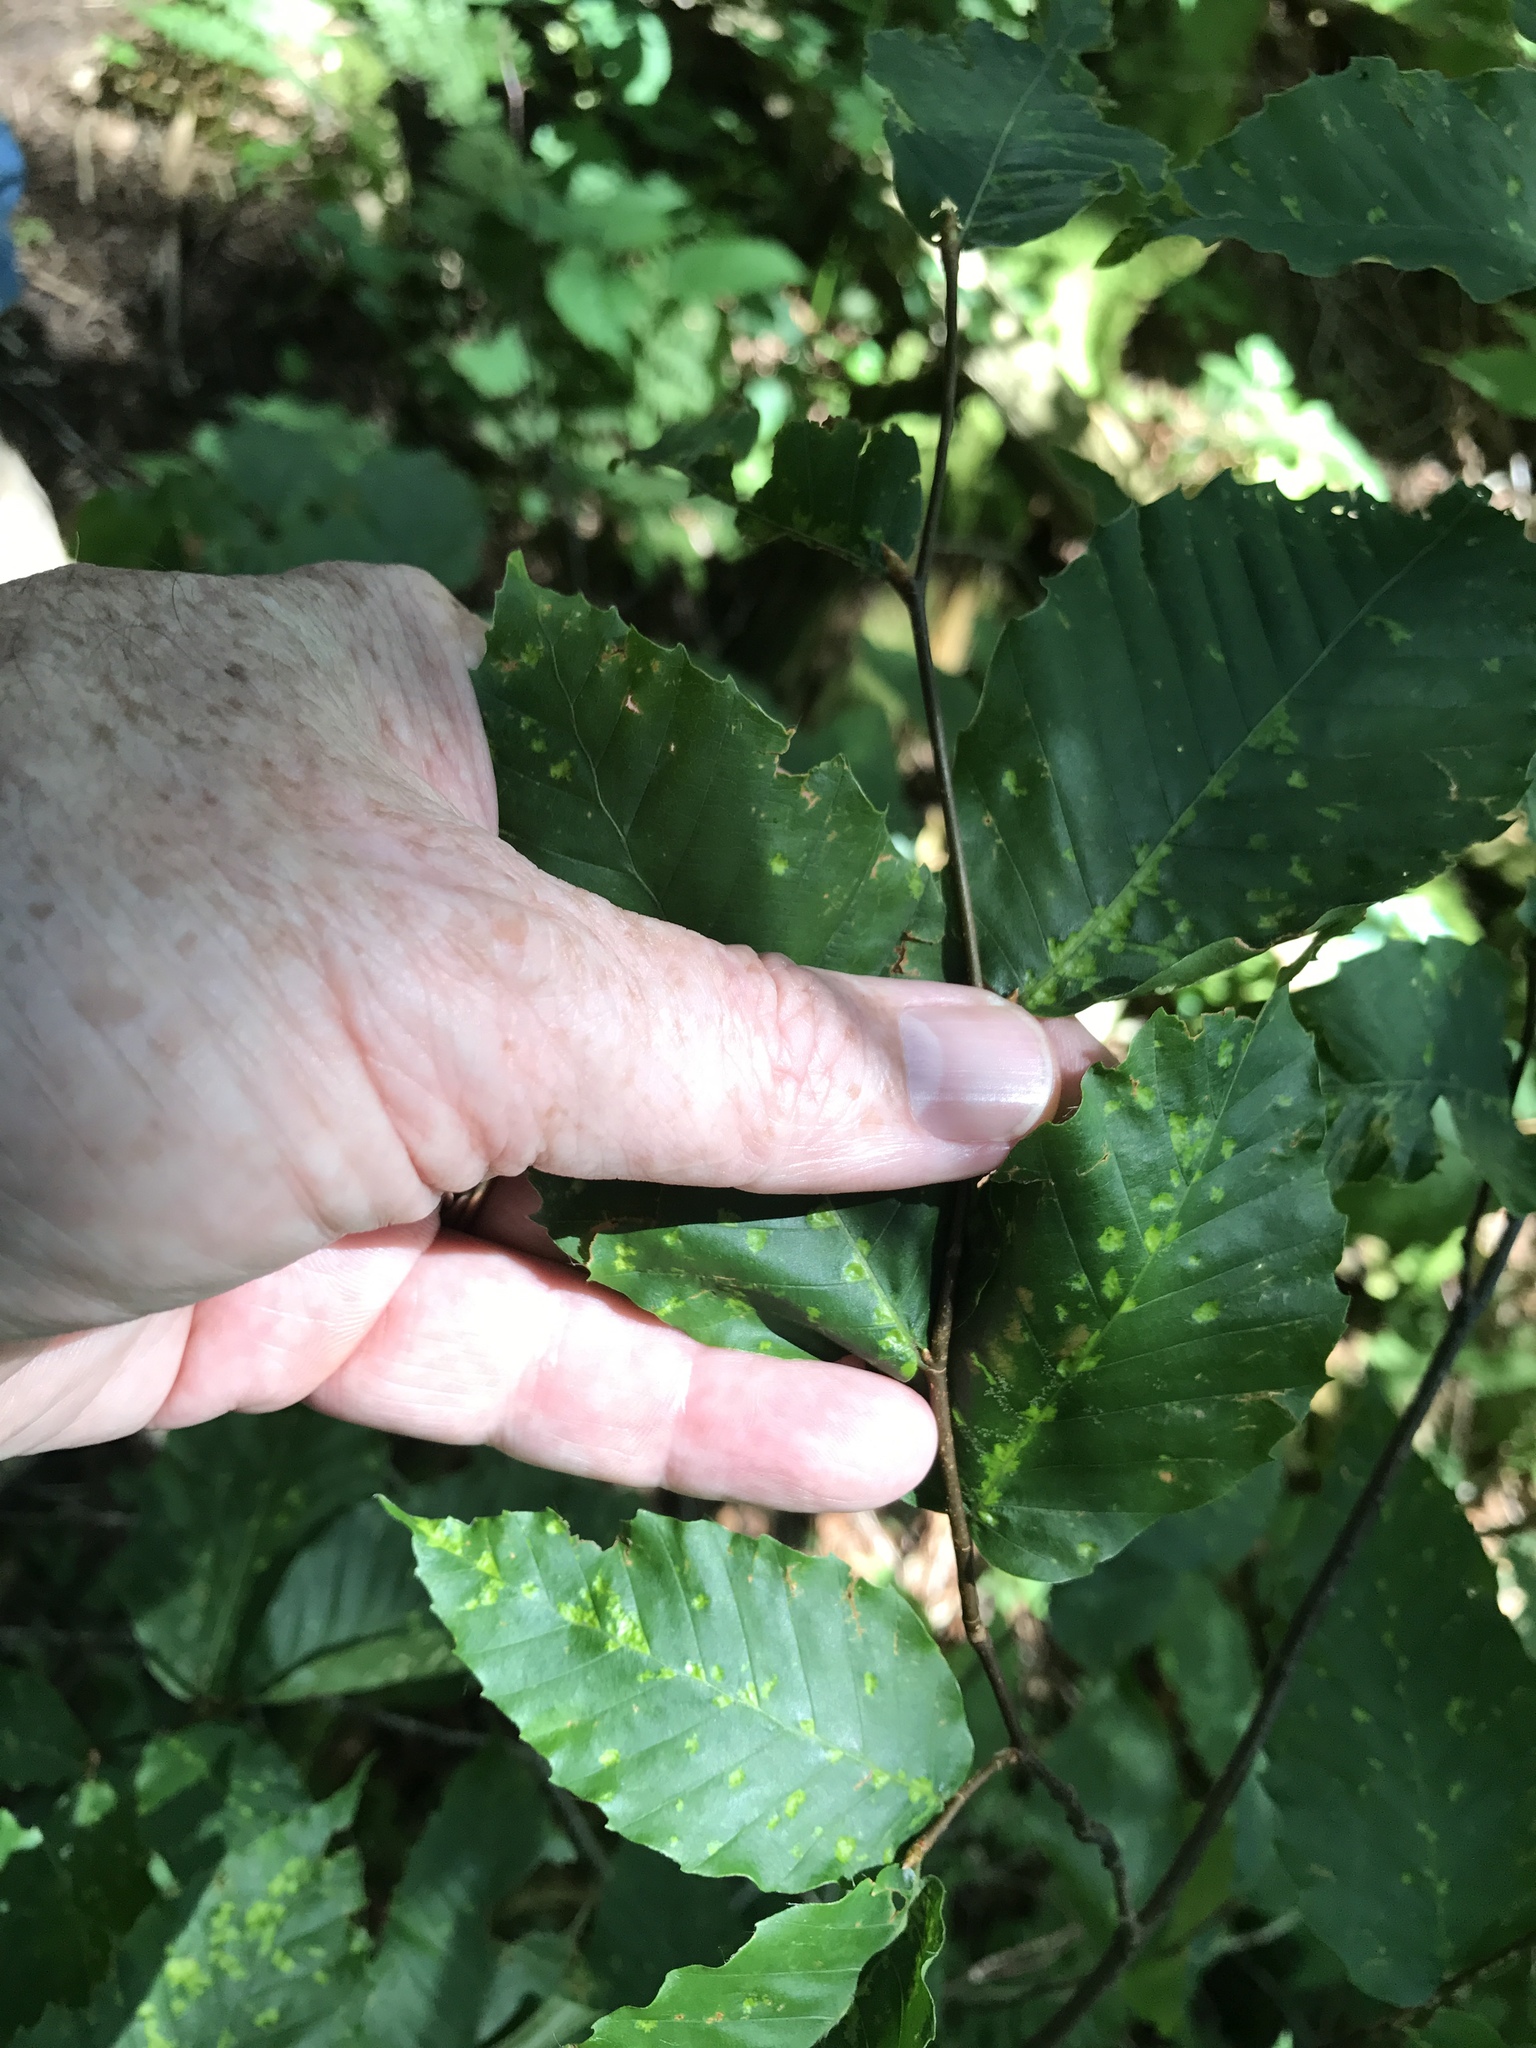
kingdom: Plantae
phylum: Tracheophyta
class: Magnoliopsida
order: Fagales
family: Fagaceae
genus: Fagus
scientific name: Fagus grandifolia
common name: American beech
